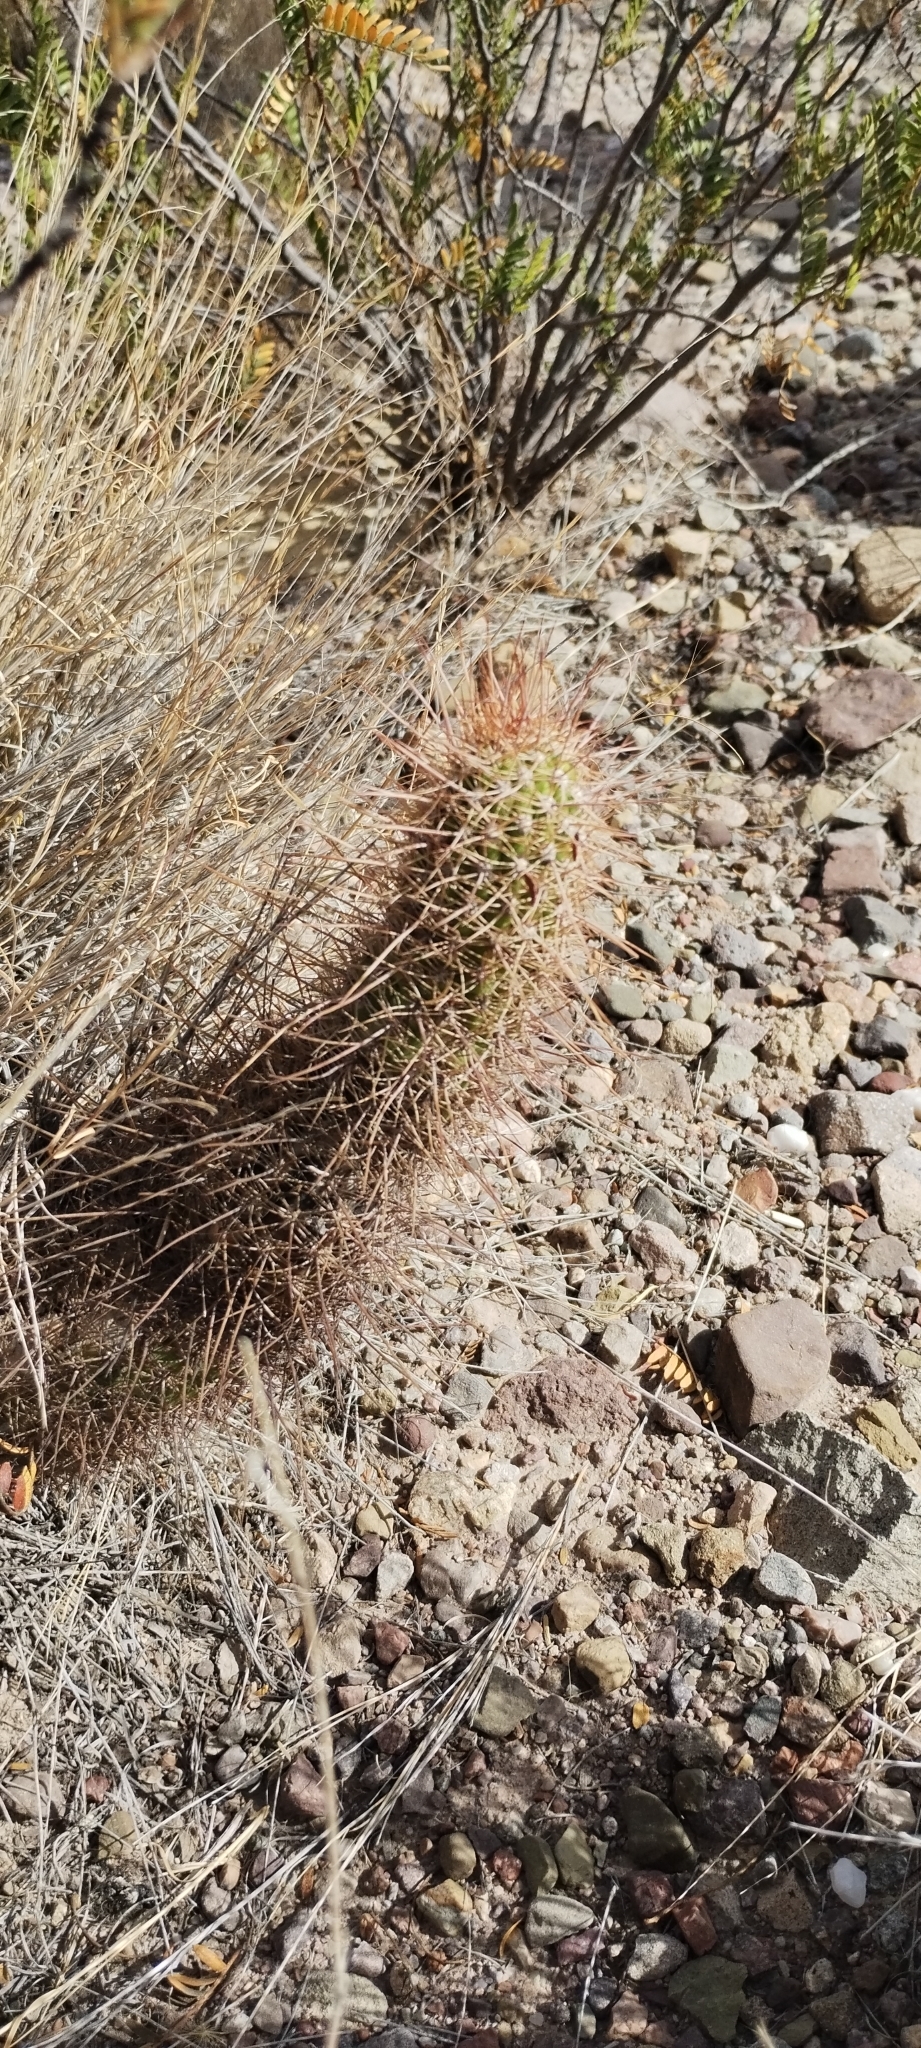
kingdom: Plantae
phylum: Tracheophyta
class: Magnoliopsida
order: Caryophyllales
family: Cactaceae
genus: Soehrensia
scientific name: Soehrensia strigosa
